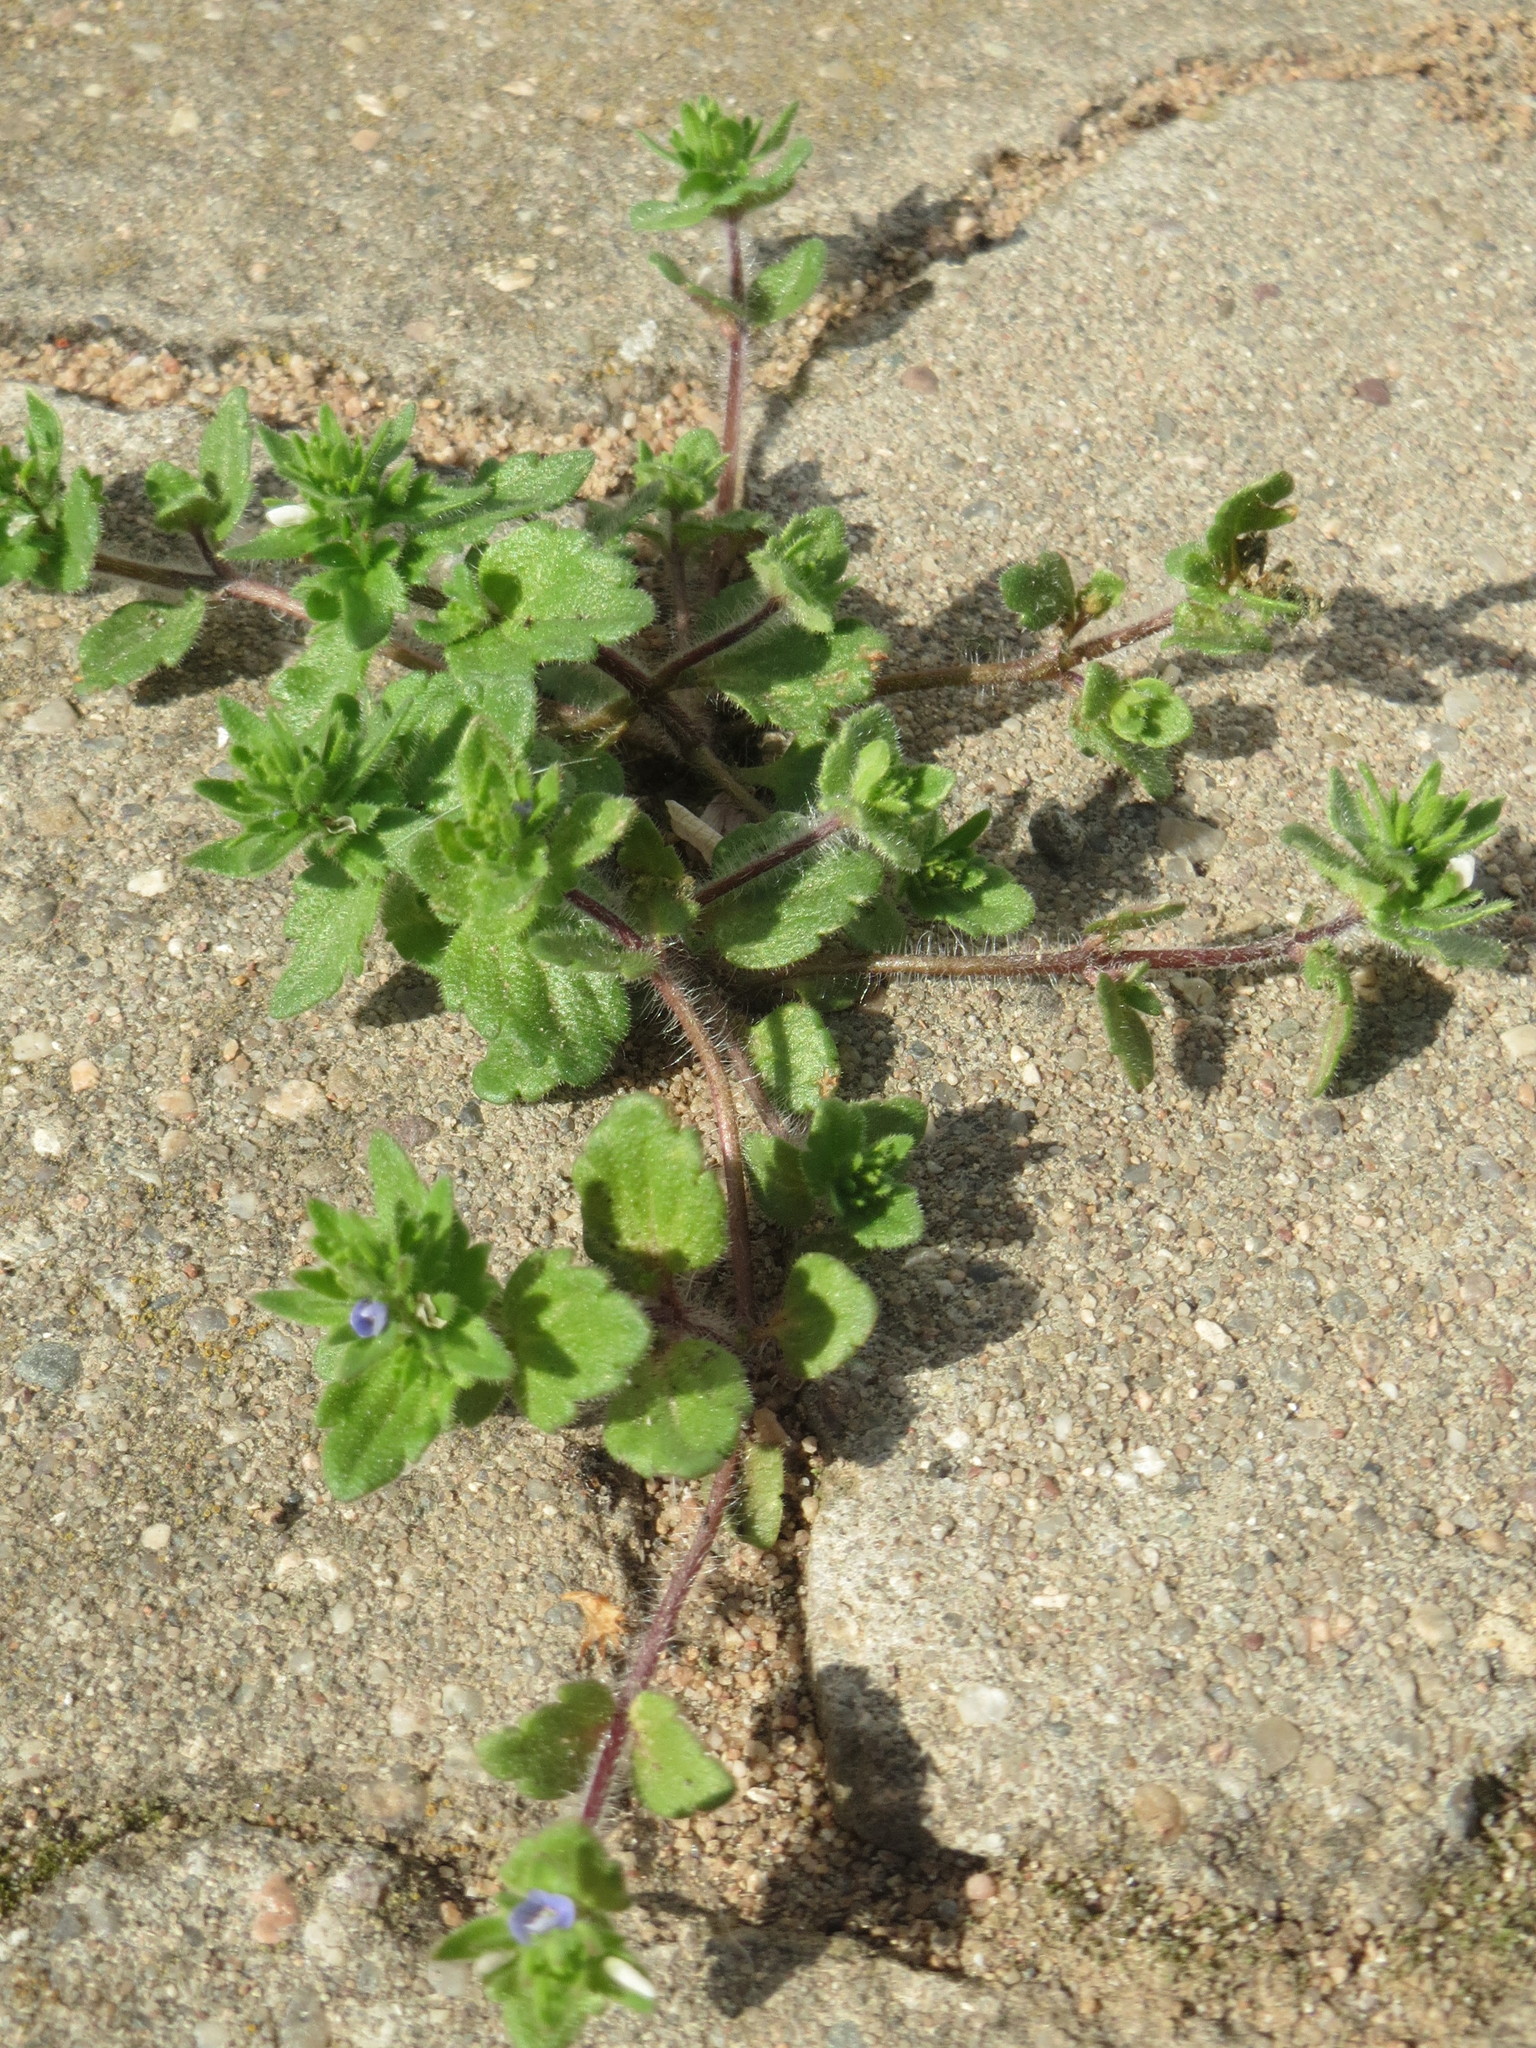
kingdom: Plantae
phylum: Tracheophyta
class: Magnoliopsida
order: Lamiales
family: Plantaginaceae
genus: Veronica
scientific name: Veronica arvensis
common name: Corn speedwell
